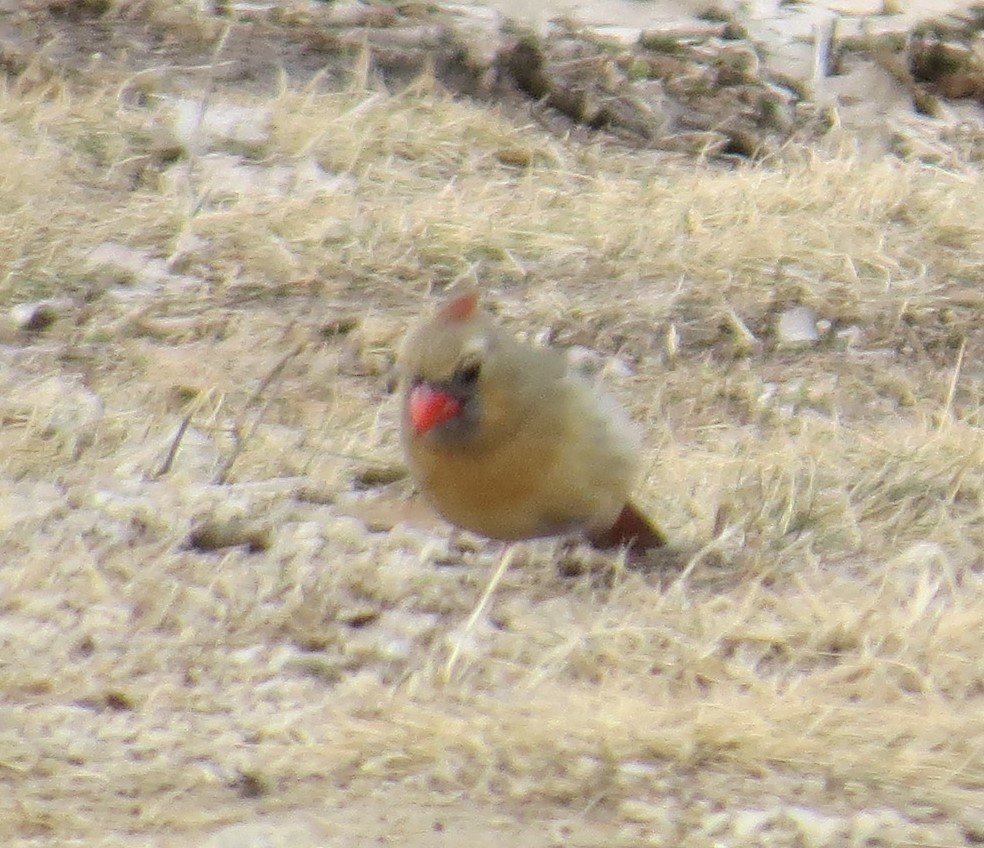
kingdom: Animalia
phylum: Chordata
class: Aves
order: Passeriformes
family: Cardinalidae
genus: Cardinalis
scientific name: Cardinalis cardinalis
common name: Northern cardinal
